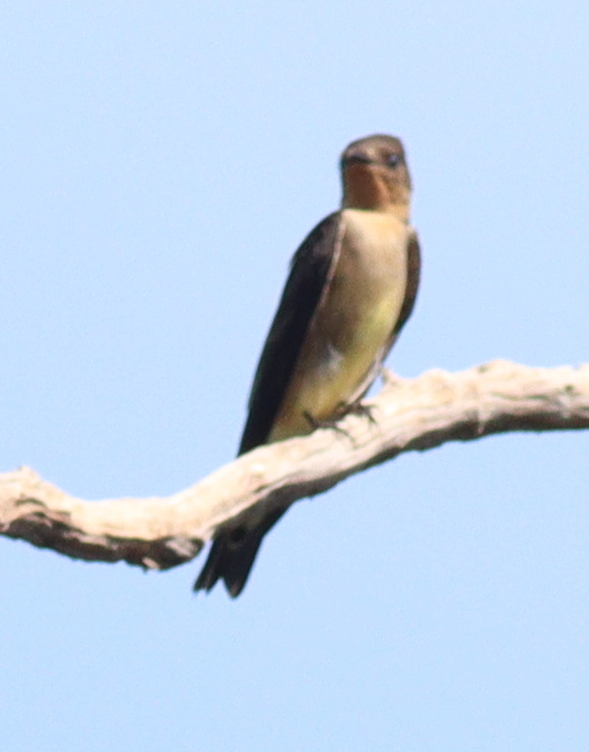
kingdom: Animalia
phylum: Chordata
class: Aves
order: Passeriformes
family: Hirundinidae
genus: Stelgidopteryx
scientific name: Stelgidopteryx ruficollis
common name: Southern rough-winged swallow
